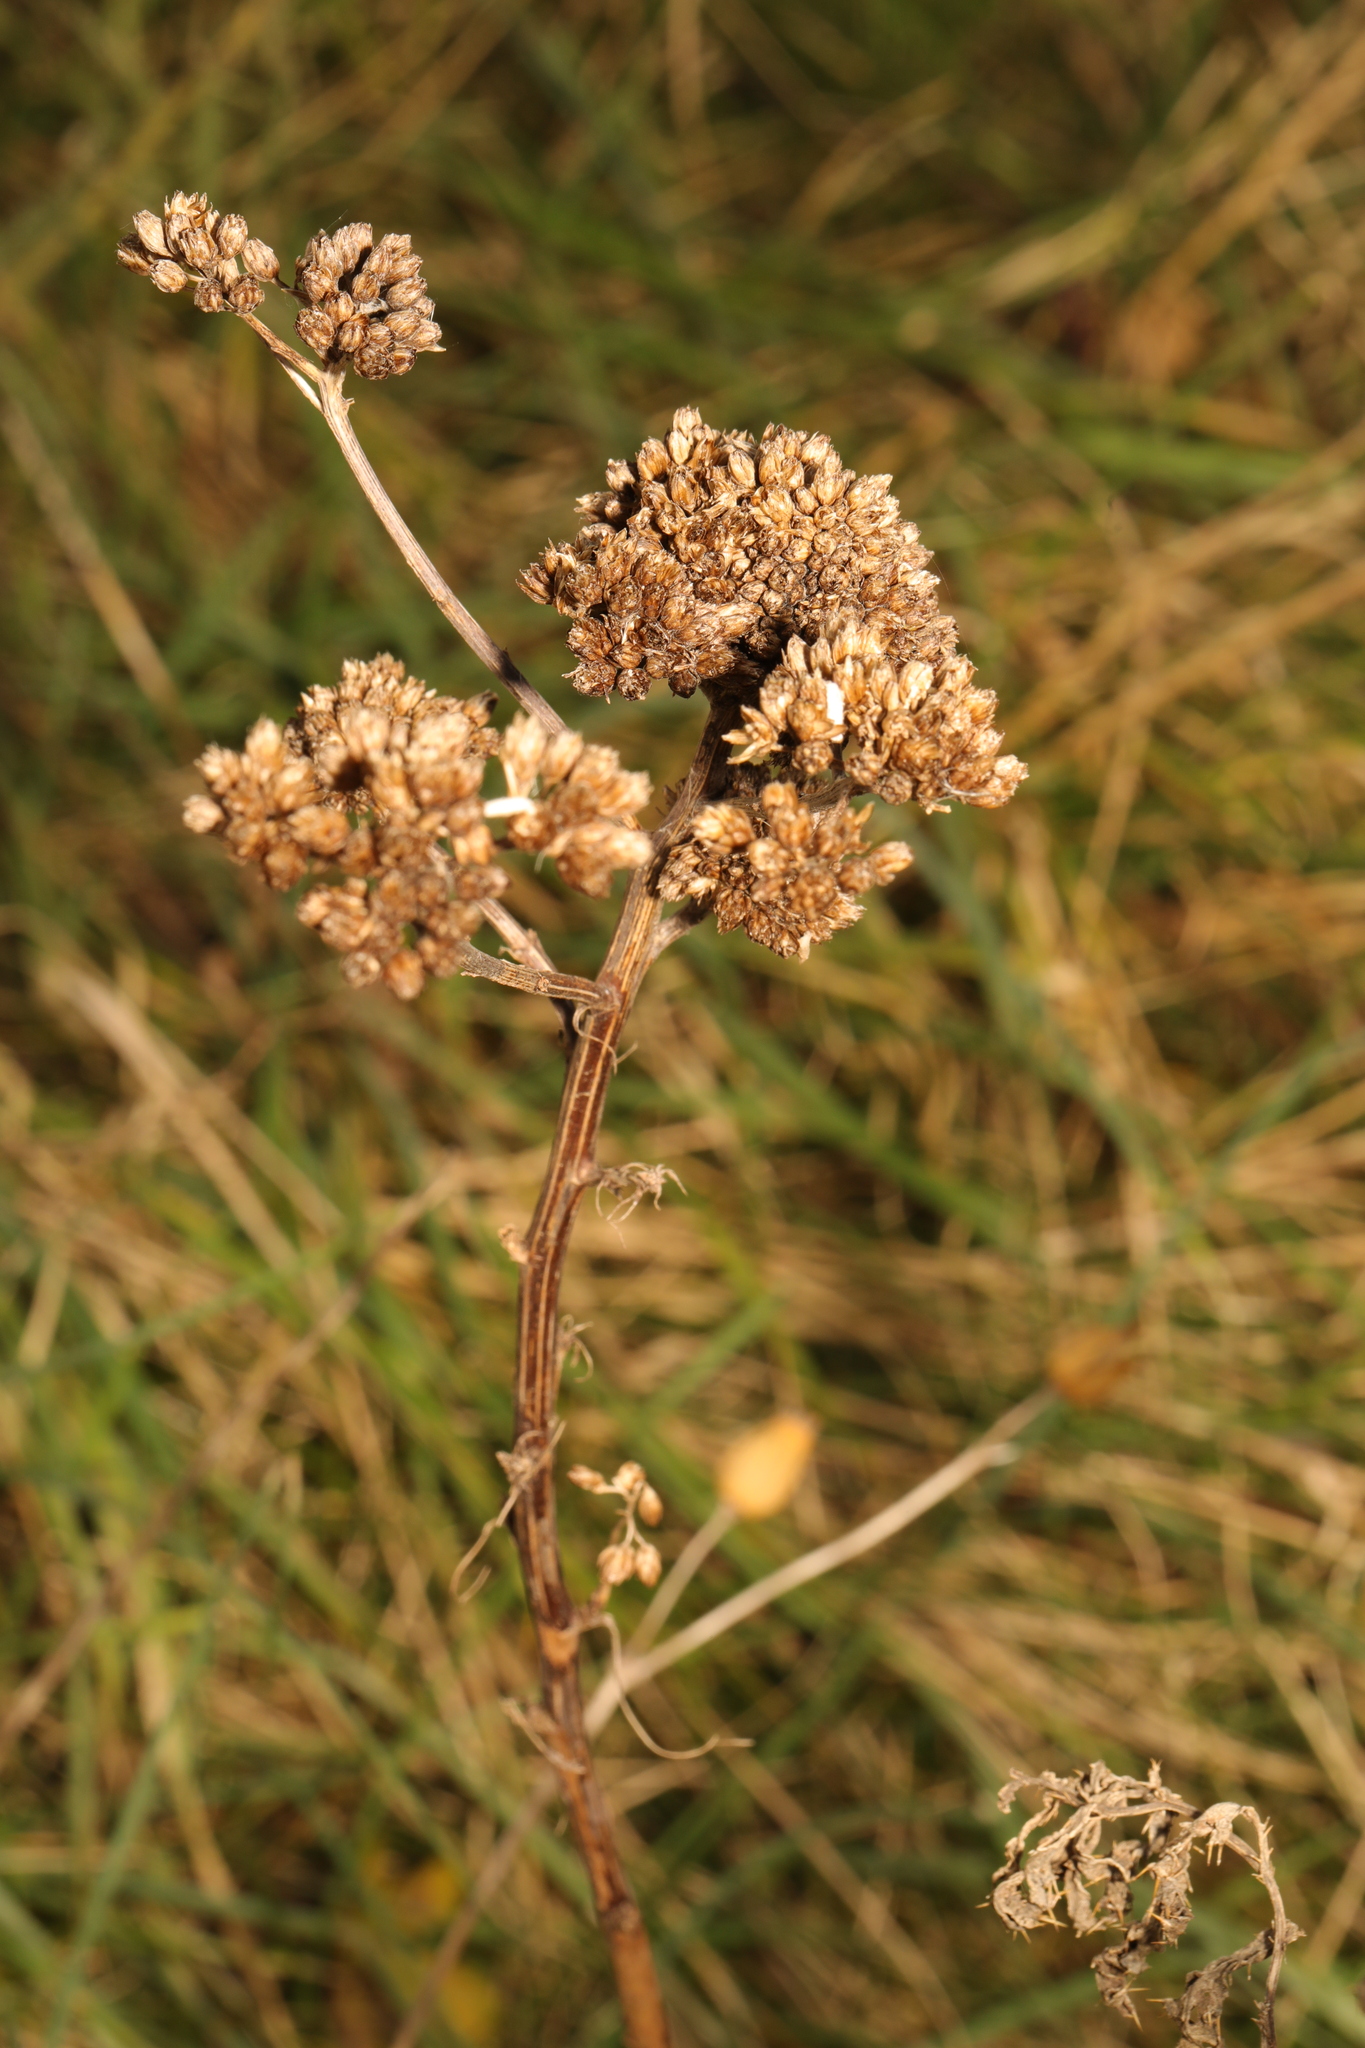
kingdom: Plantae
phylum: Tracheophyta
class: Magnoliopsida
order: Asterales
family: Asteraceae
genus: Achillea
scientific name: Achillea millefolium
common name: Yarrow
